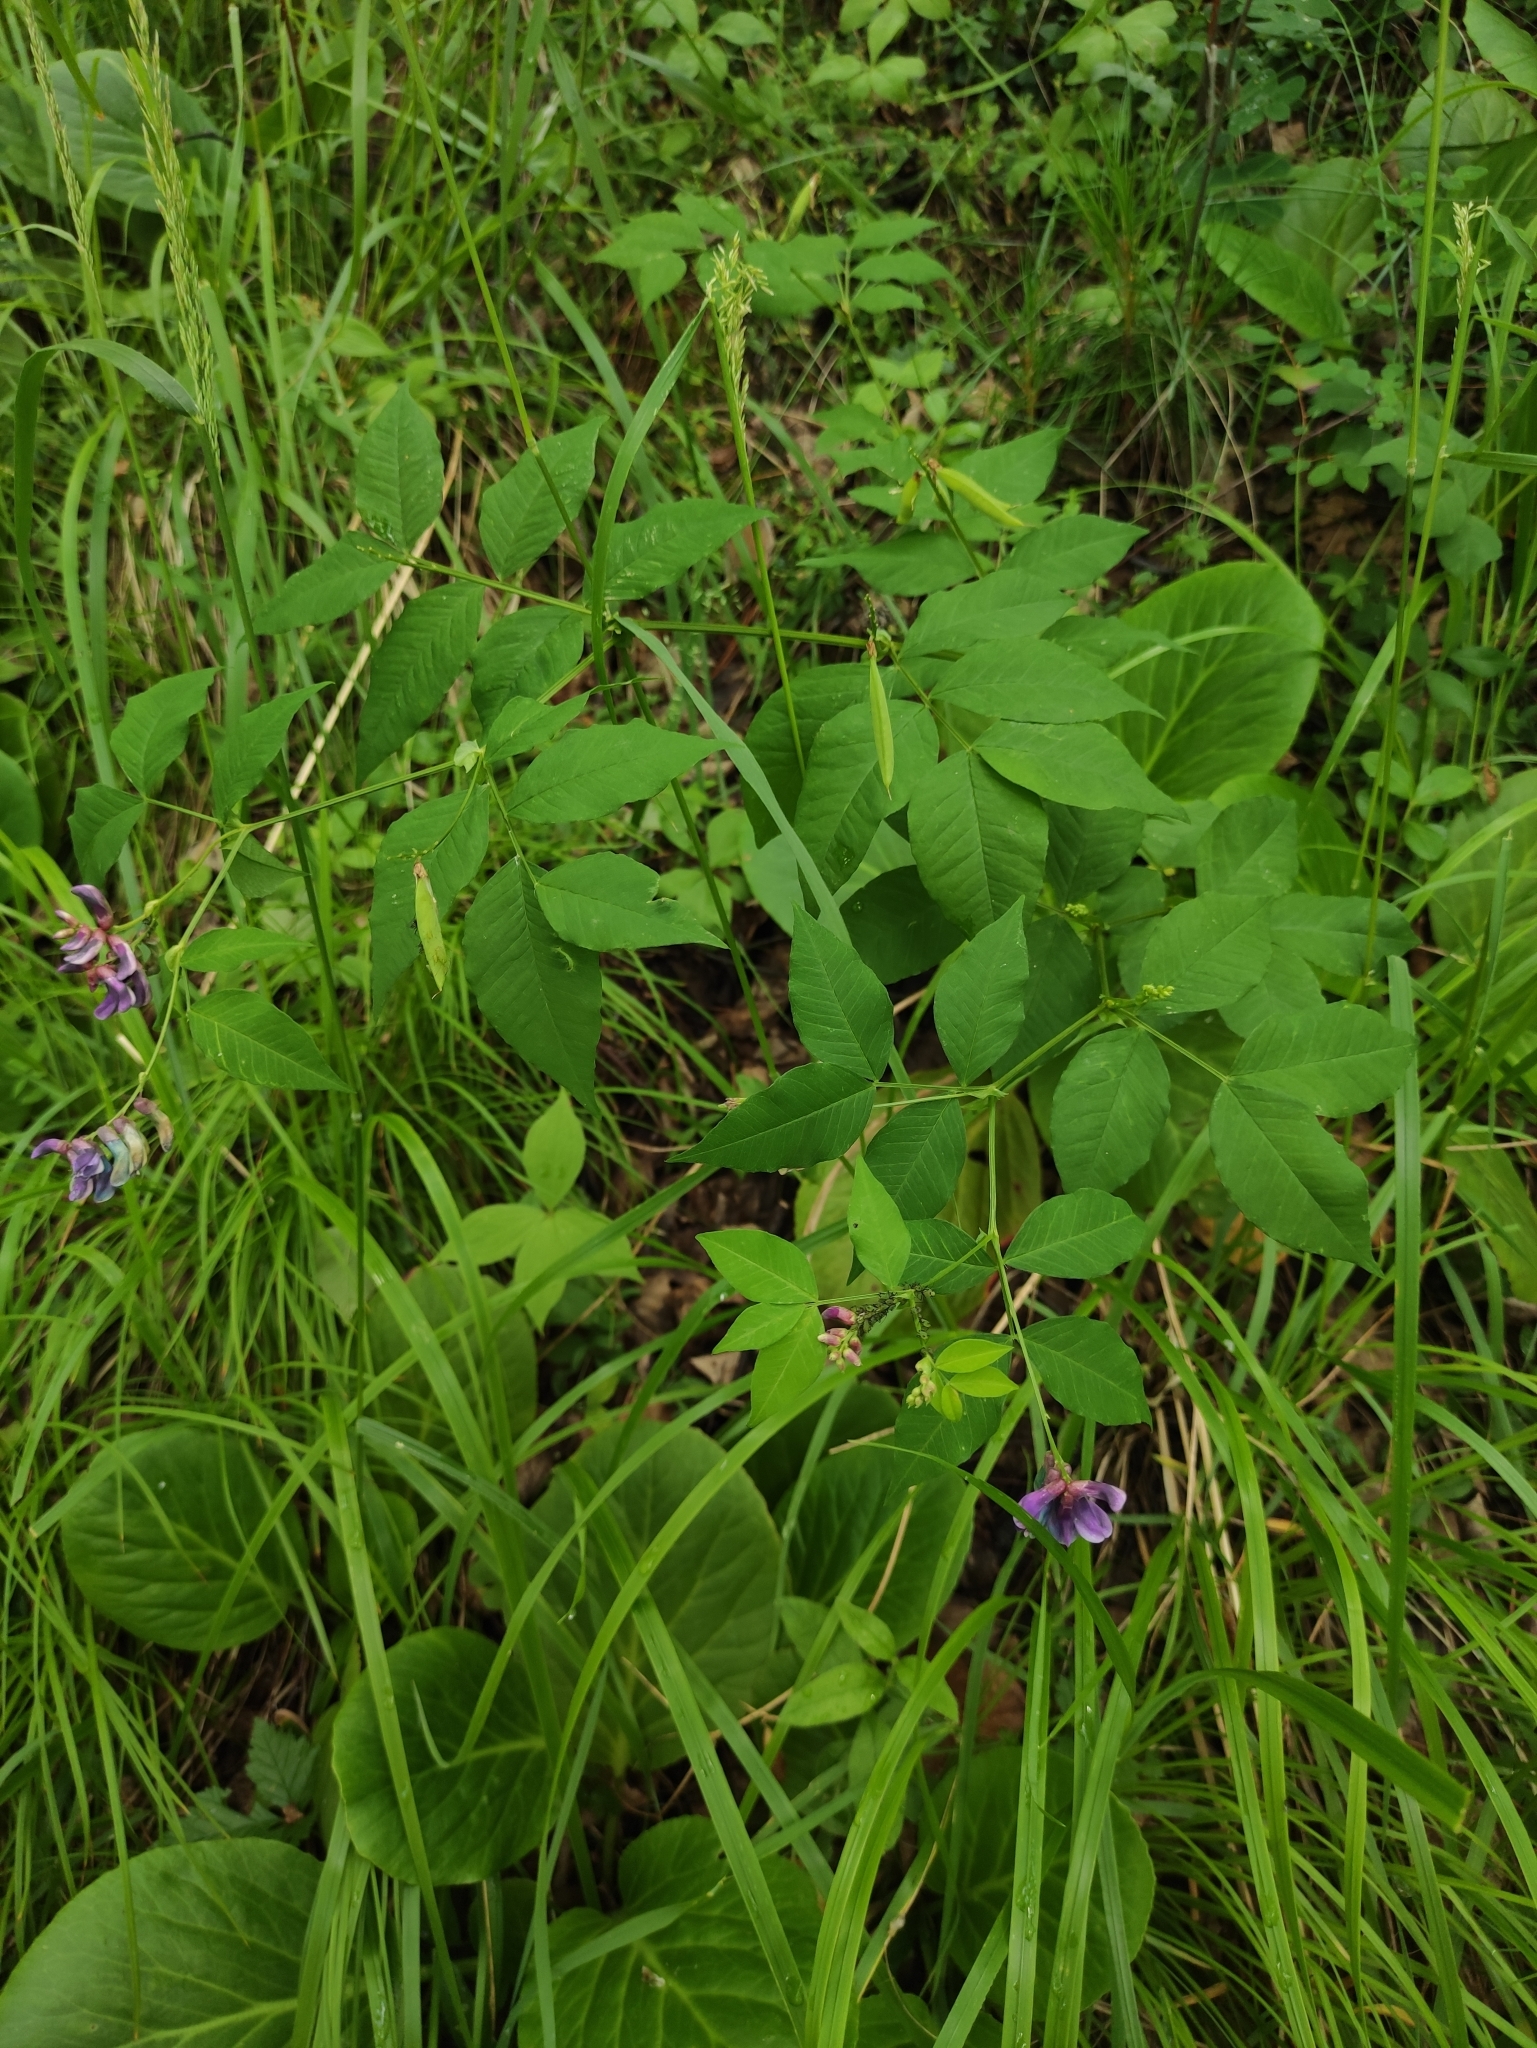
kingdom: Plantae
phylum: Tracheophyta
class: Magnoliopsida
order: Fabales
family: Fabaceae
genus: Vicia
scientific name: Vicia ramuliflora
